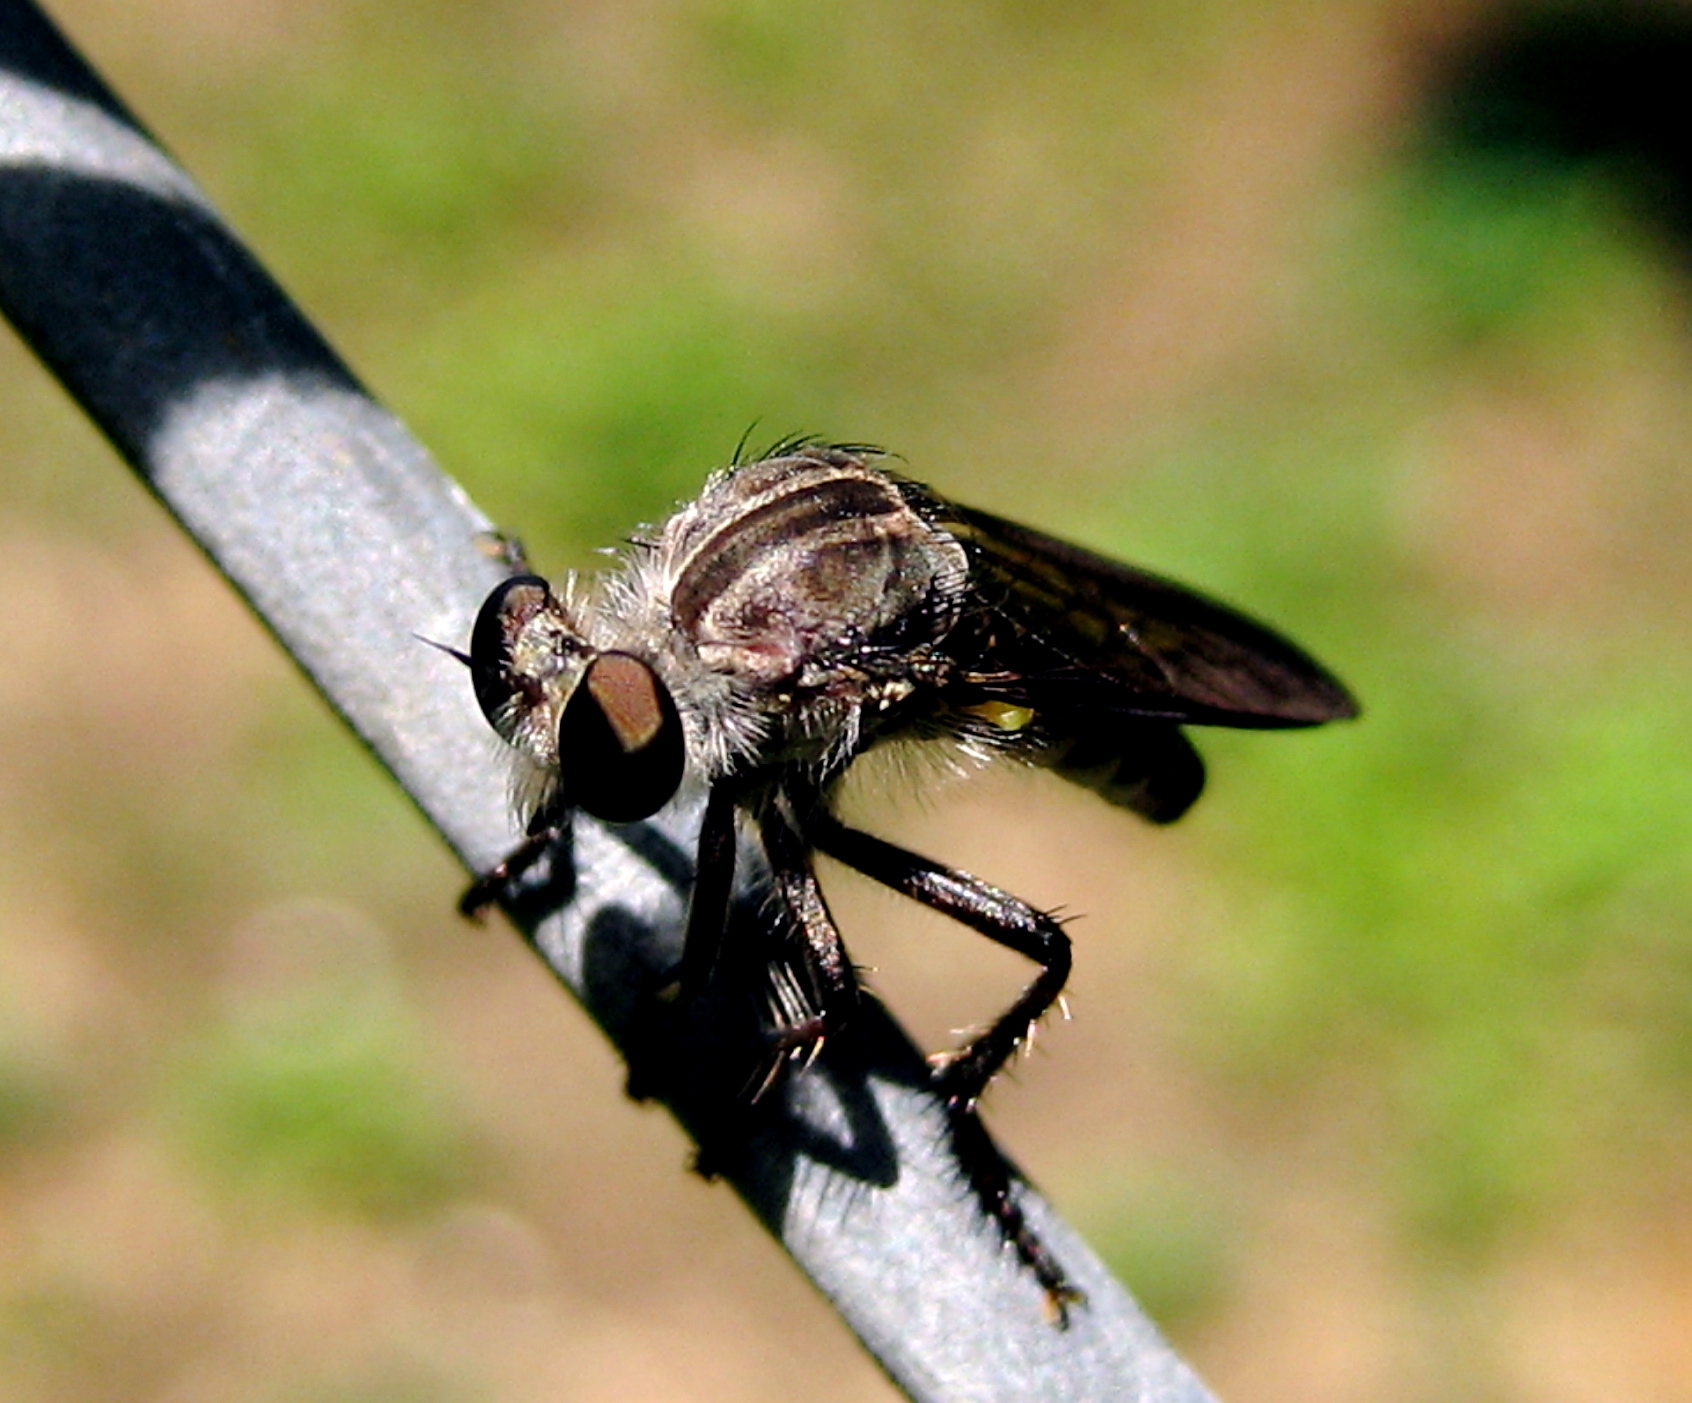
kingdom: Animalia
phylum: Arthropoda
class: Insecta
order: Diptera
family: Asilidae
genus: Heteropogon
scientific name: Heteropogon macerinus
